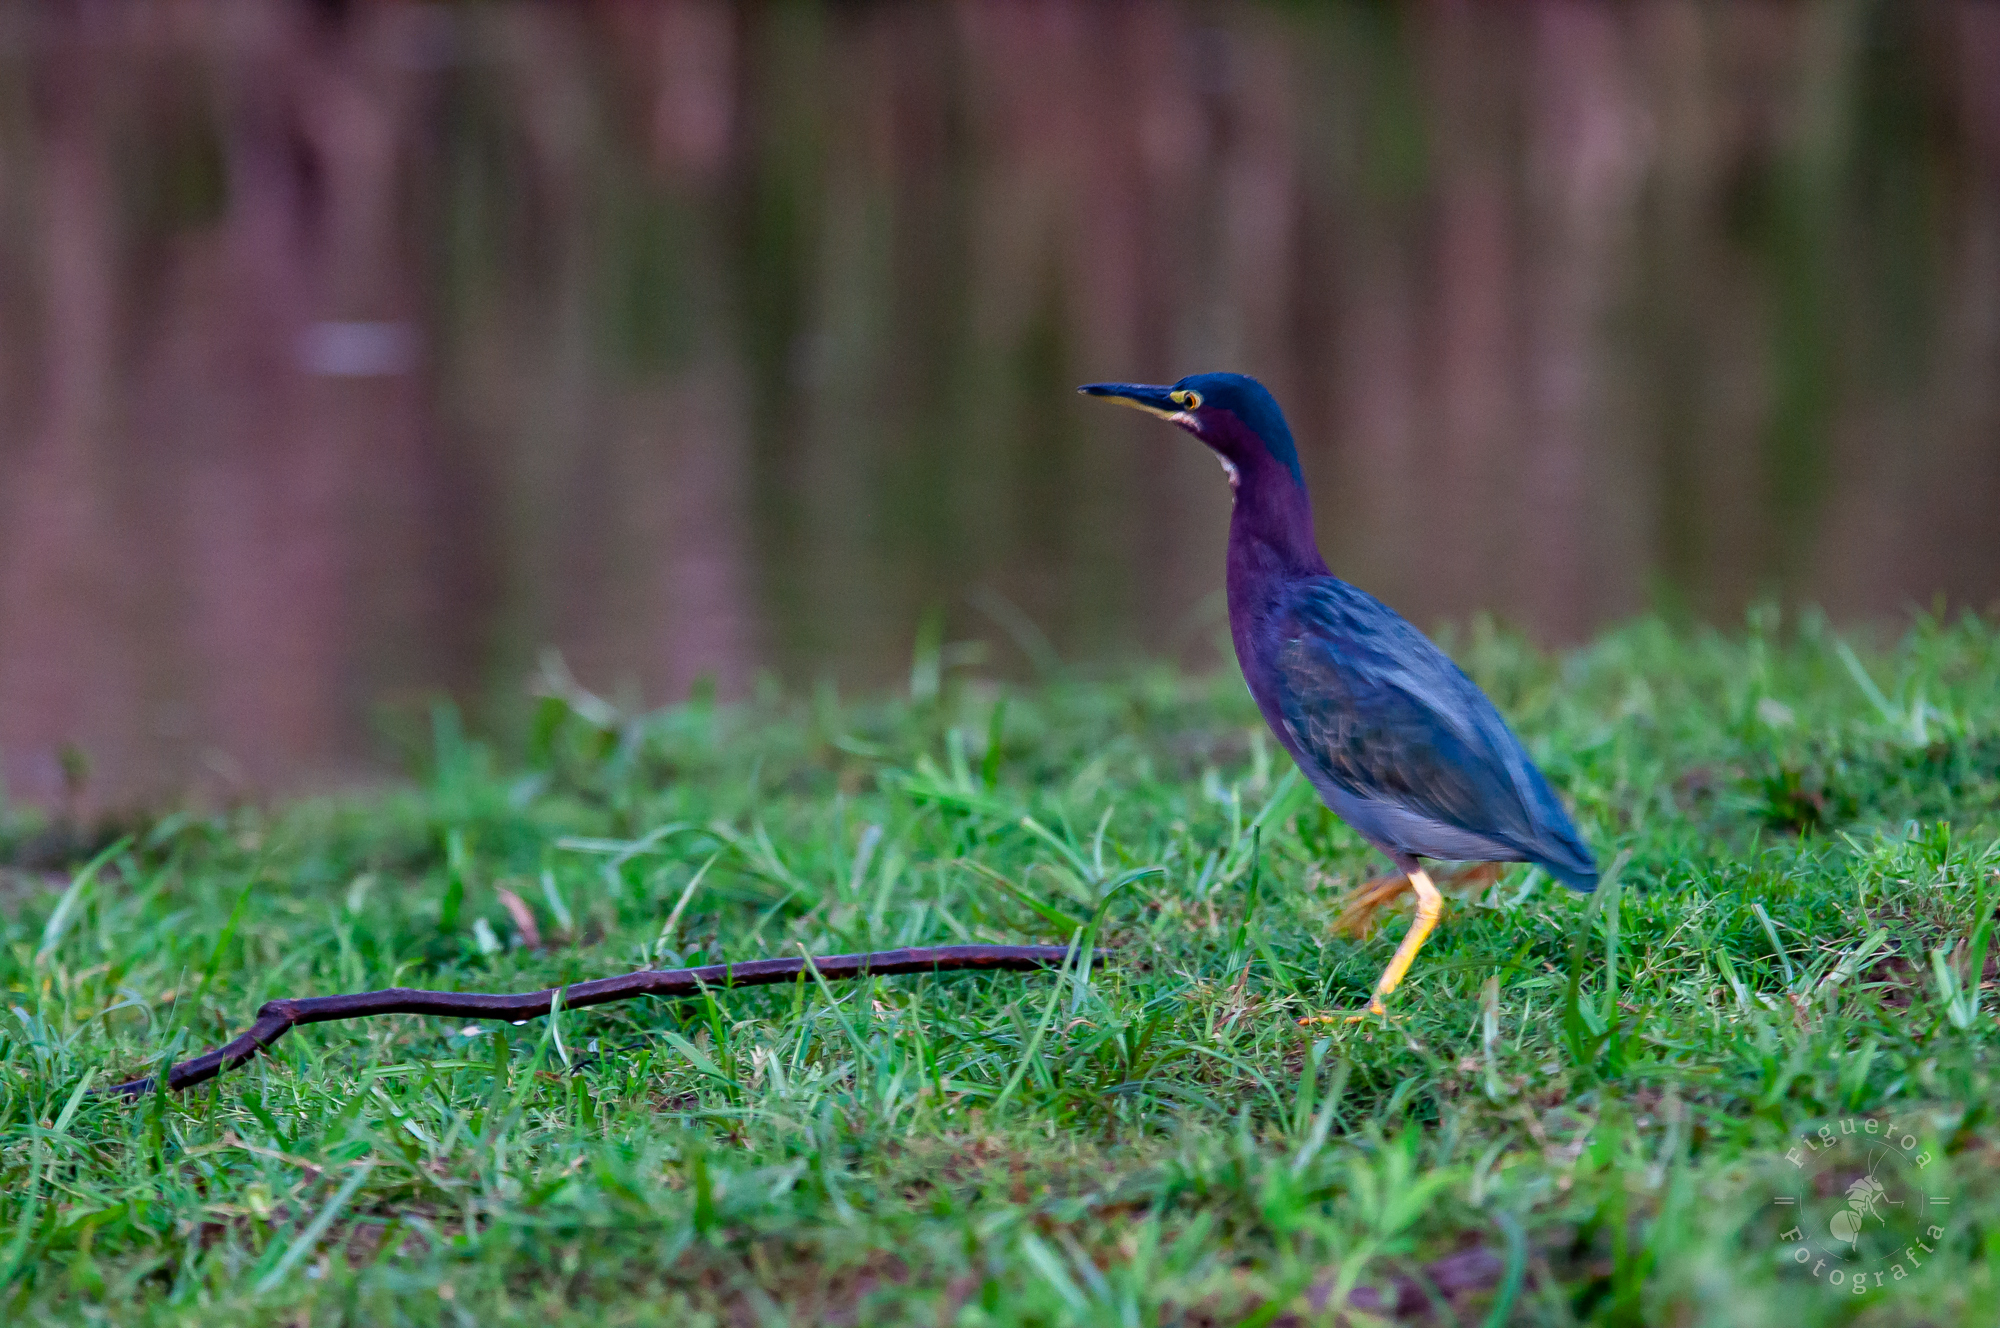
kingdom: Animalia
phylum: Chordata
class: Aves
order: Pelecaniformes
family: Ardeidae
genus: Butorides
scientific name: Butorides virescens
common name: Green heron
